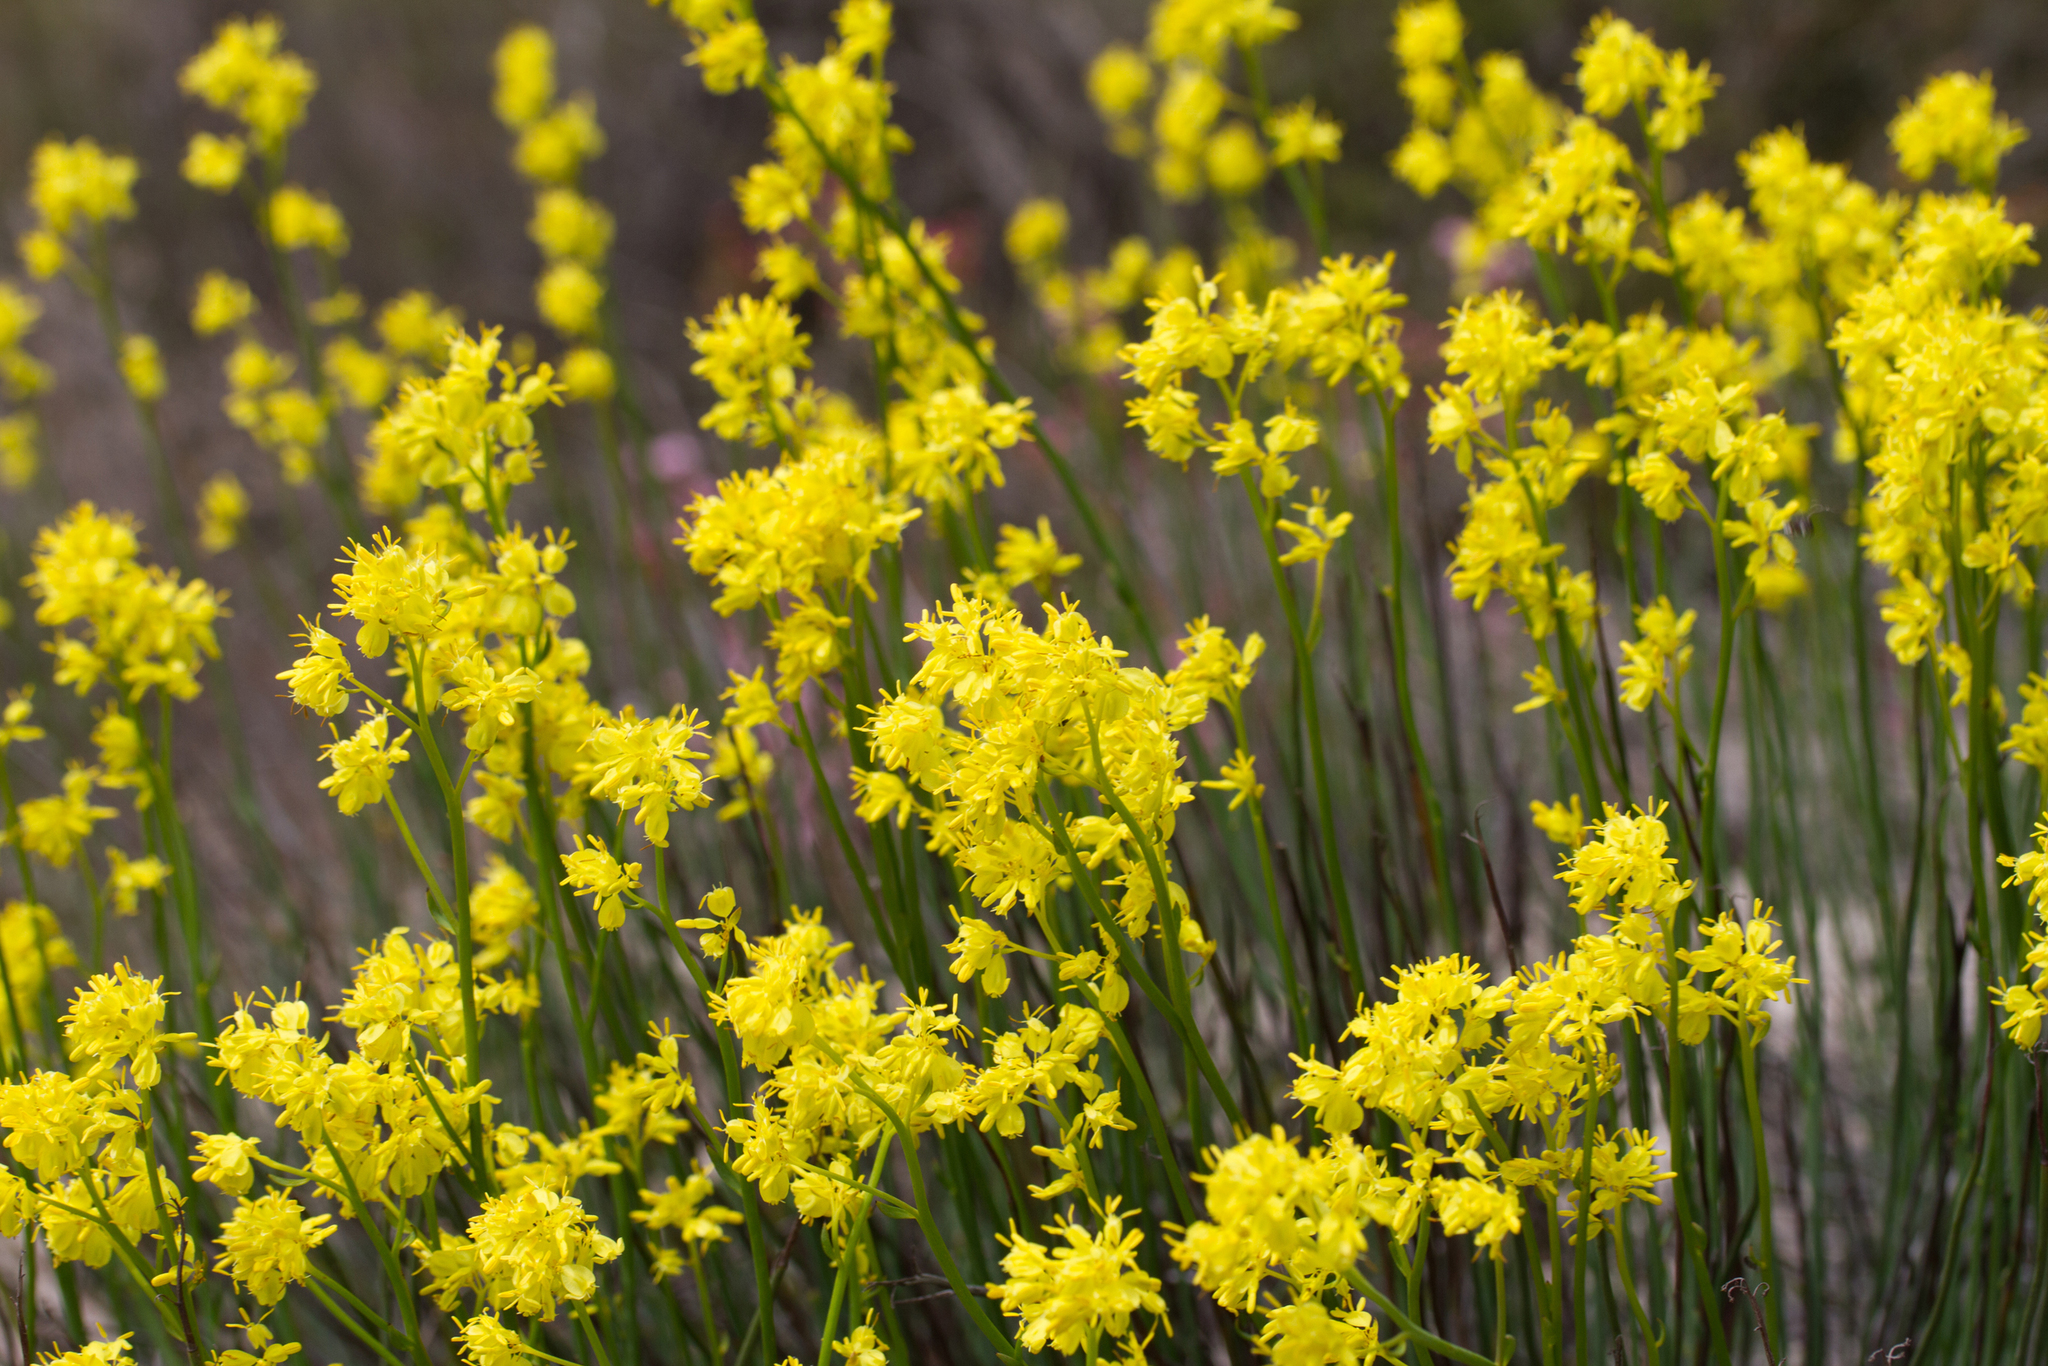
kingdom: Plantae
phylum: Tracheophyta
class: Magnoliopsida
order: Saxifragales
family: Haloragaceae
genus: Glischrocaryon
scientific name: Glischrocaryon behrii
